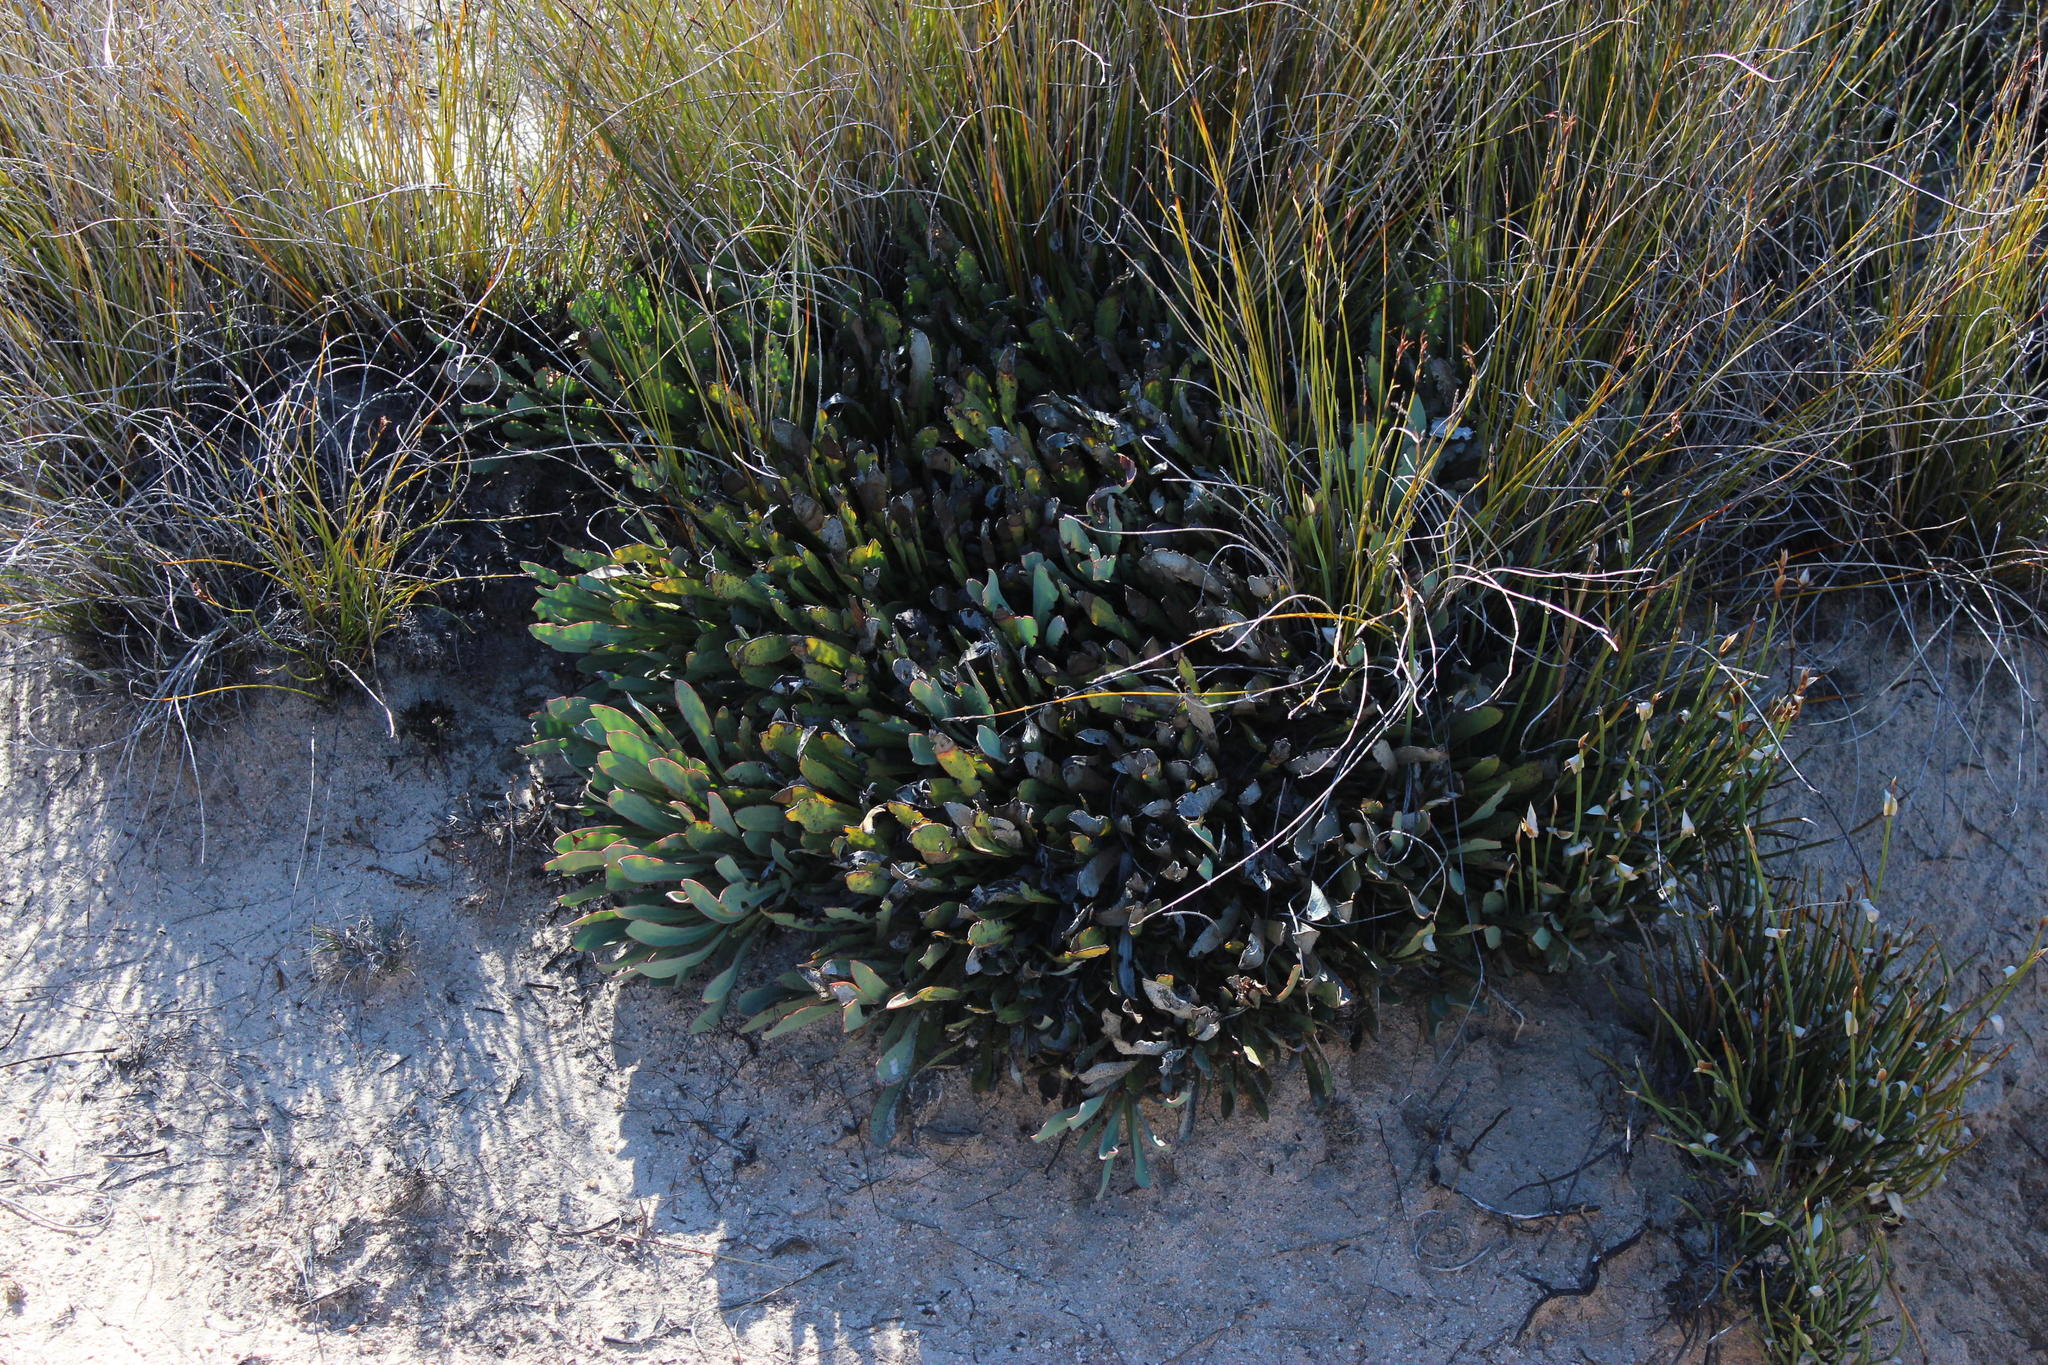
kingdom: Plantae
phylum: Tracheophyta
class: Magnoliopsida
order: Proteales
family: Proteaceae
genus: Protea
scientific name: Protea laevis
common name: Smooth-leaf sugarbush
